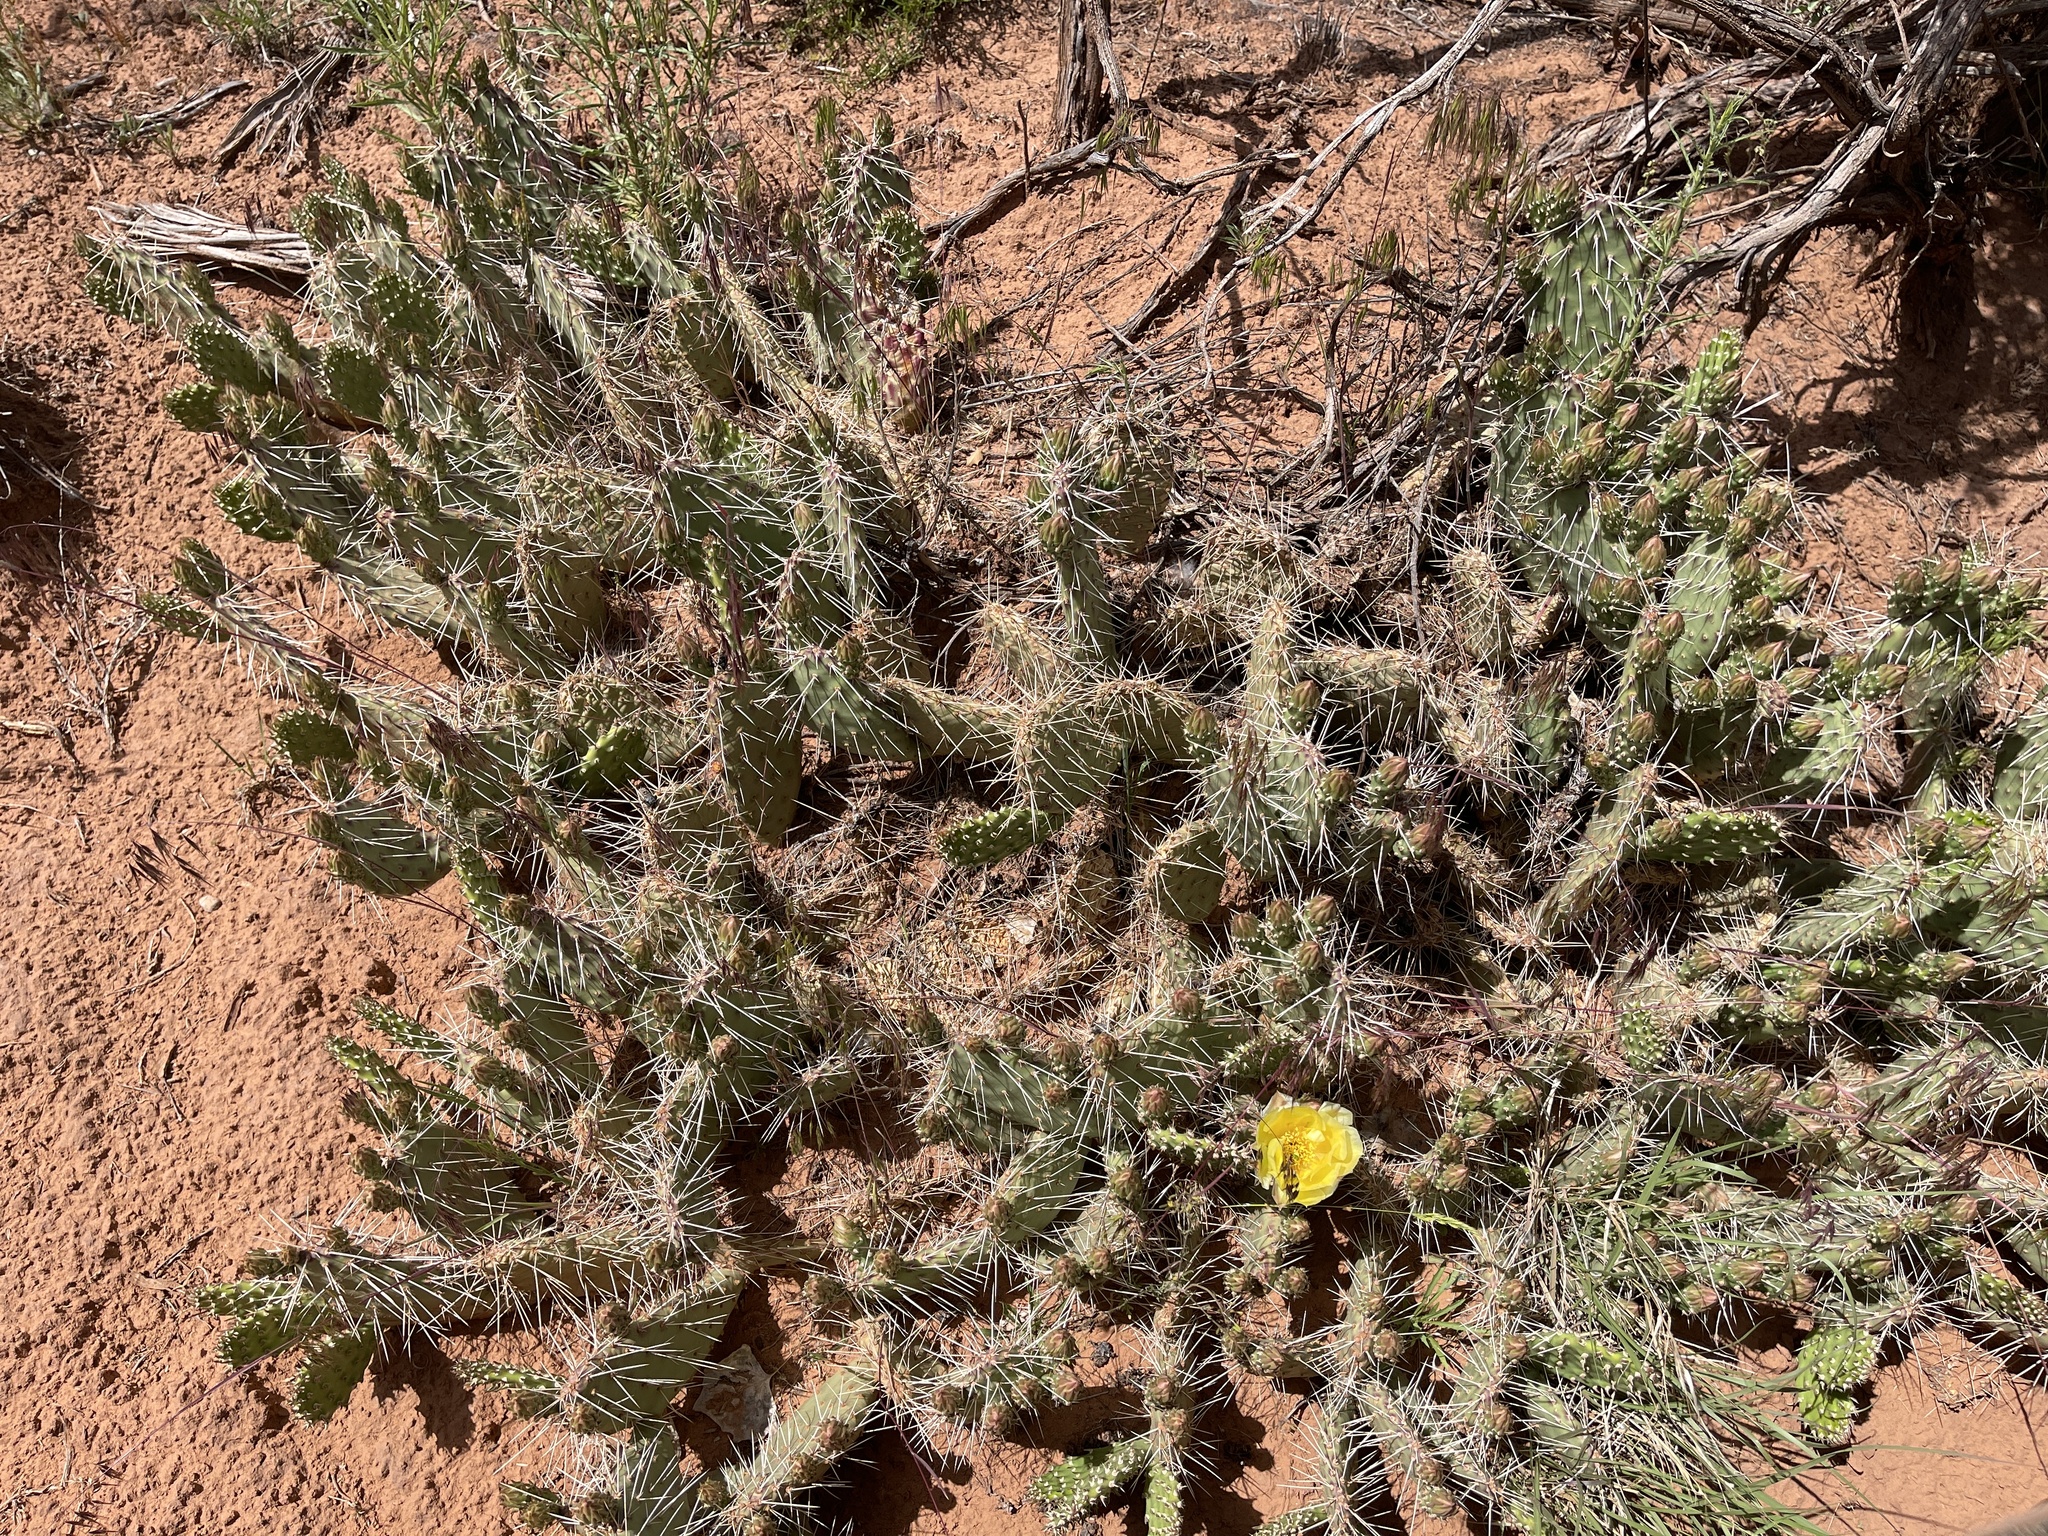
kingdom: Plantae
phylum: Tracheophyta
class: Magnoliopsida
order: Caryophyllales
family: Cactaceae
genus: Opuntia
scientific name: Opuntia polyacantha
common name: Plains prickly-pear
